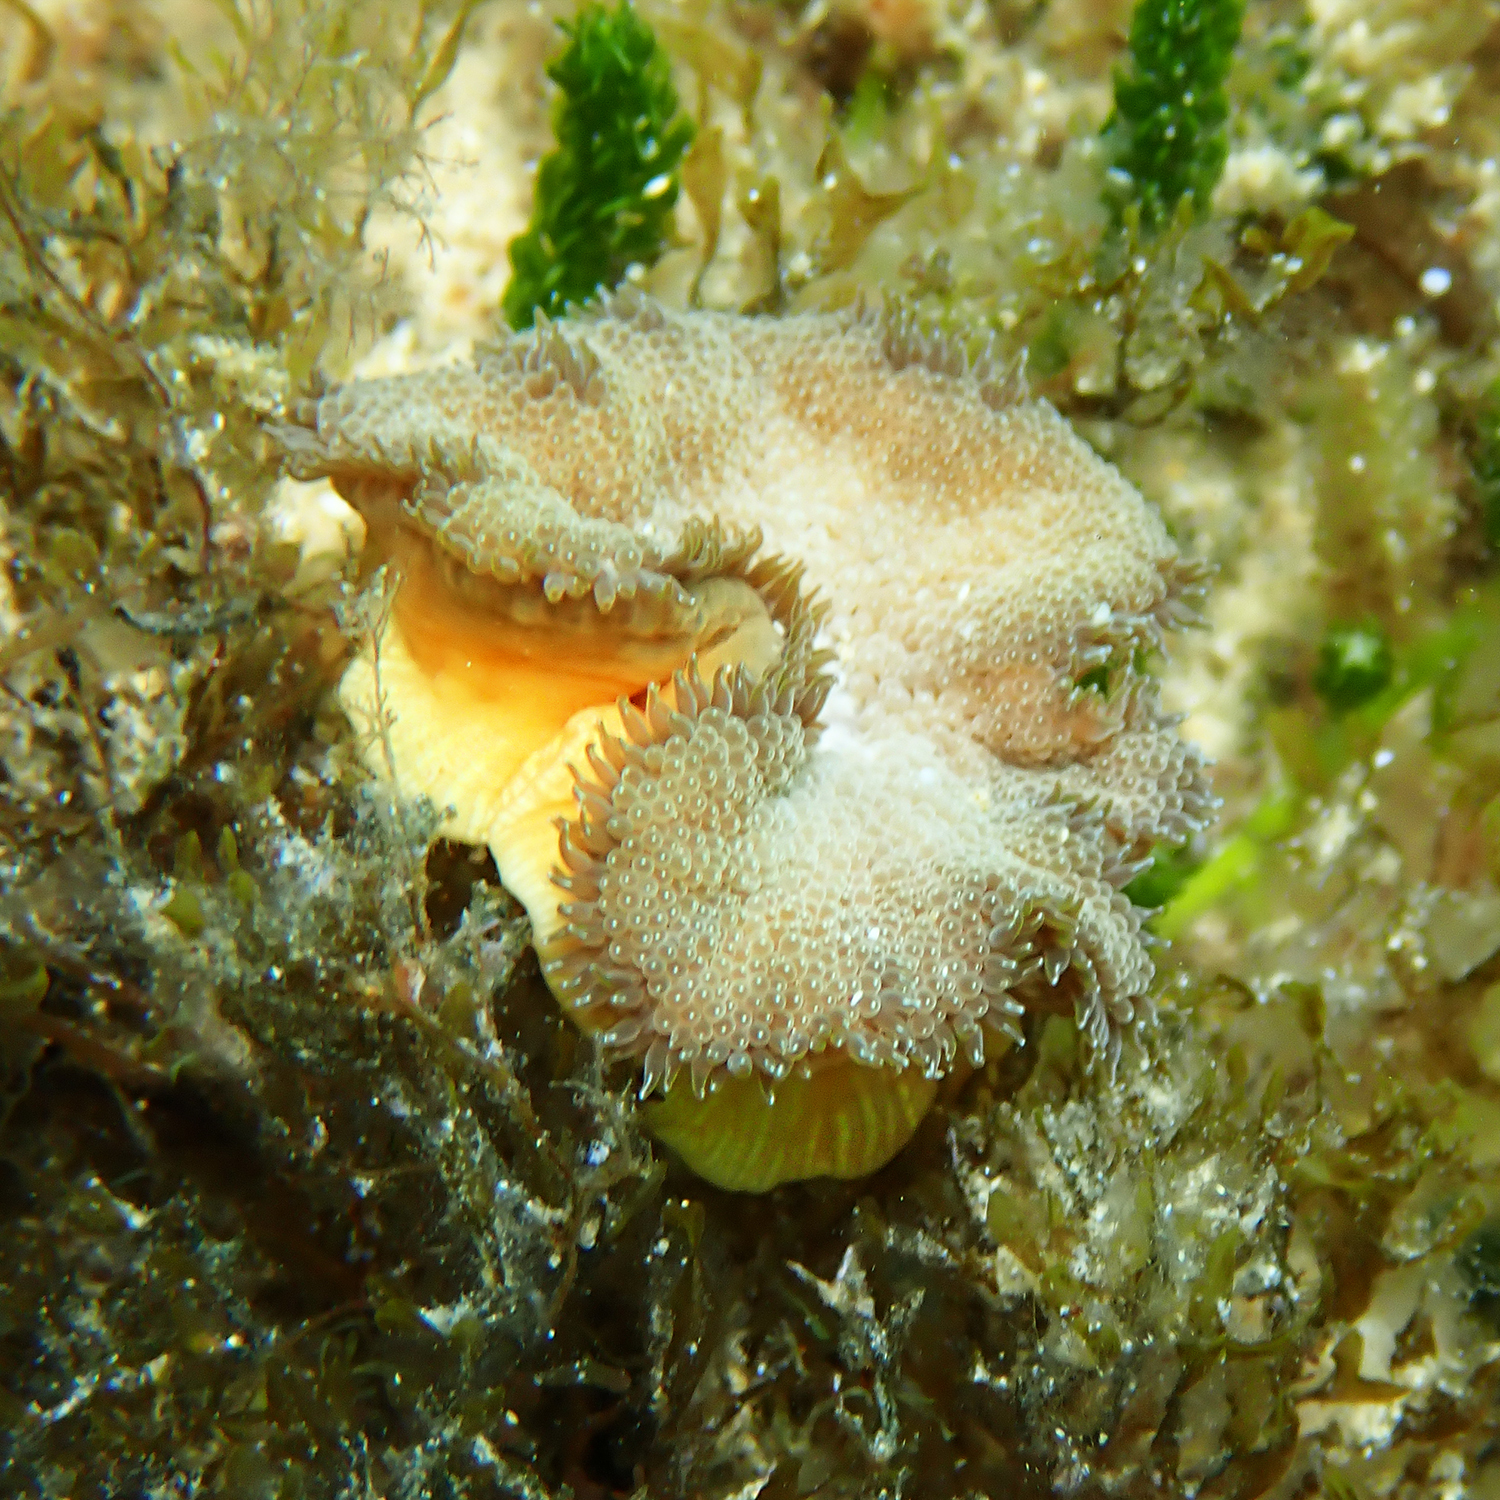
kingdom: Animalia
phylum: Cnidaria
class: Anthozoa
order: Actiniaria
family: Stichodactylidae
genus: Stichodactyla
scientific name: Stichodactyla tapetum
